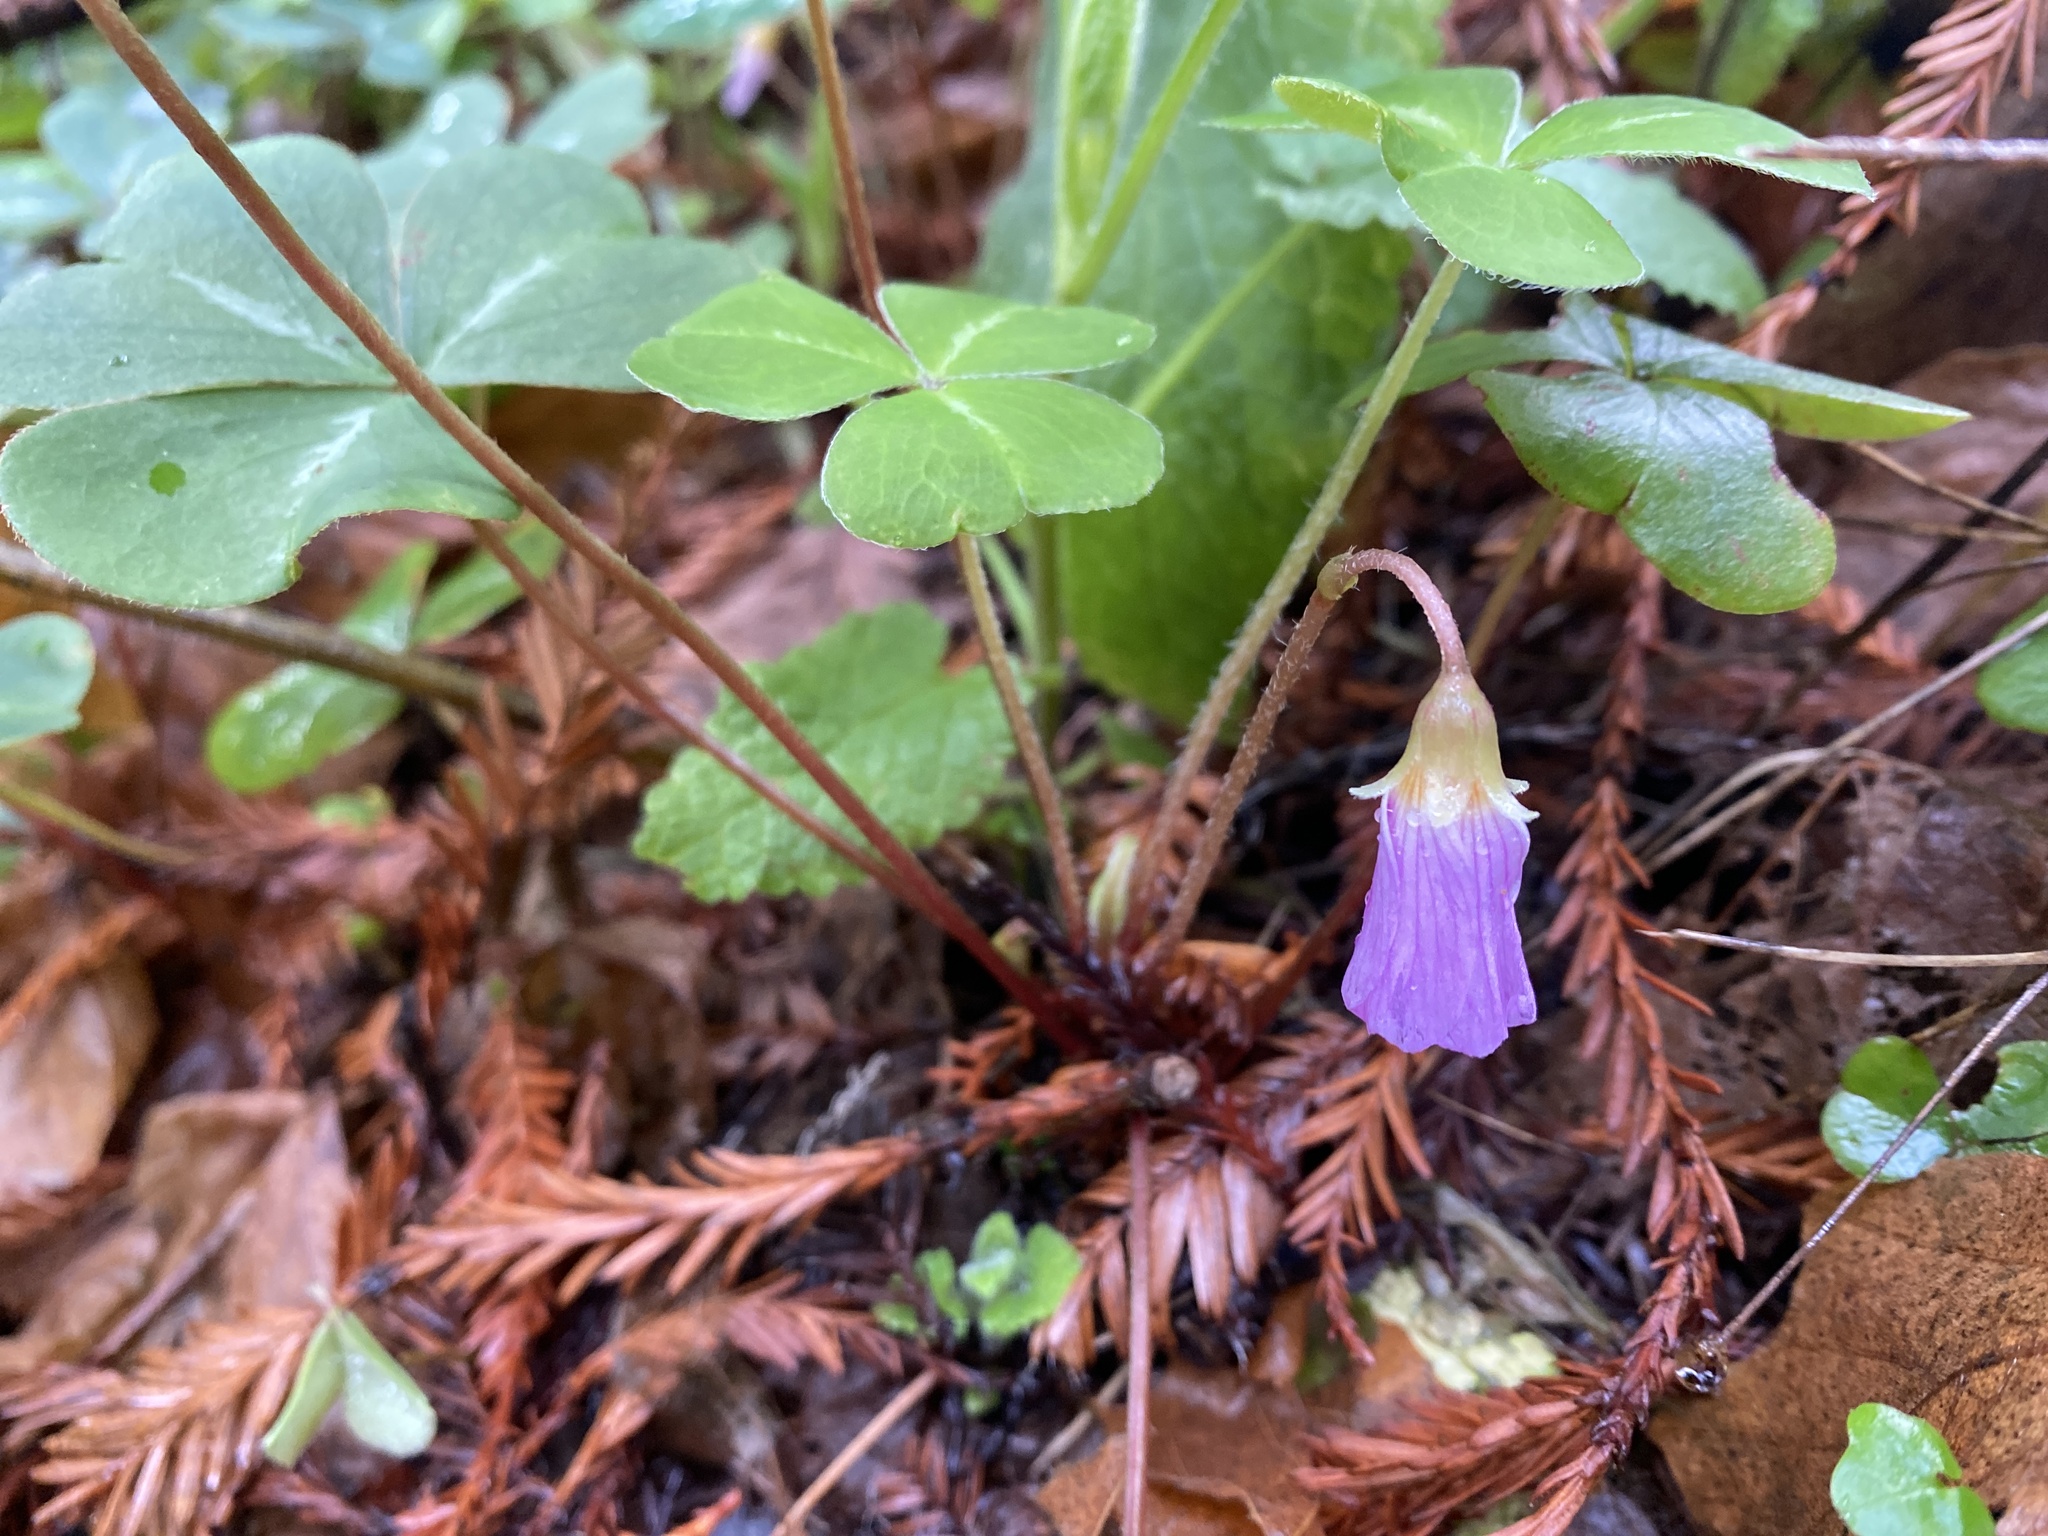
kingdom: Plantae
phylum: Tracheophyta
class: Magnoliopsida
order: Oxalidales
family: Oxalidaceae
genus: Oxalis
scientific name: Oxalis oregana
